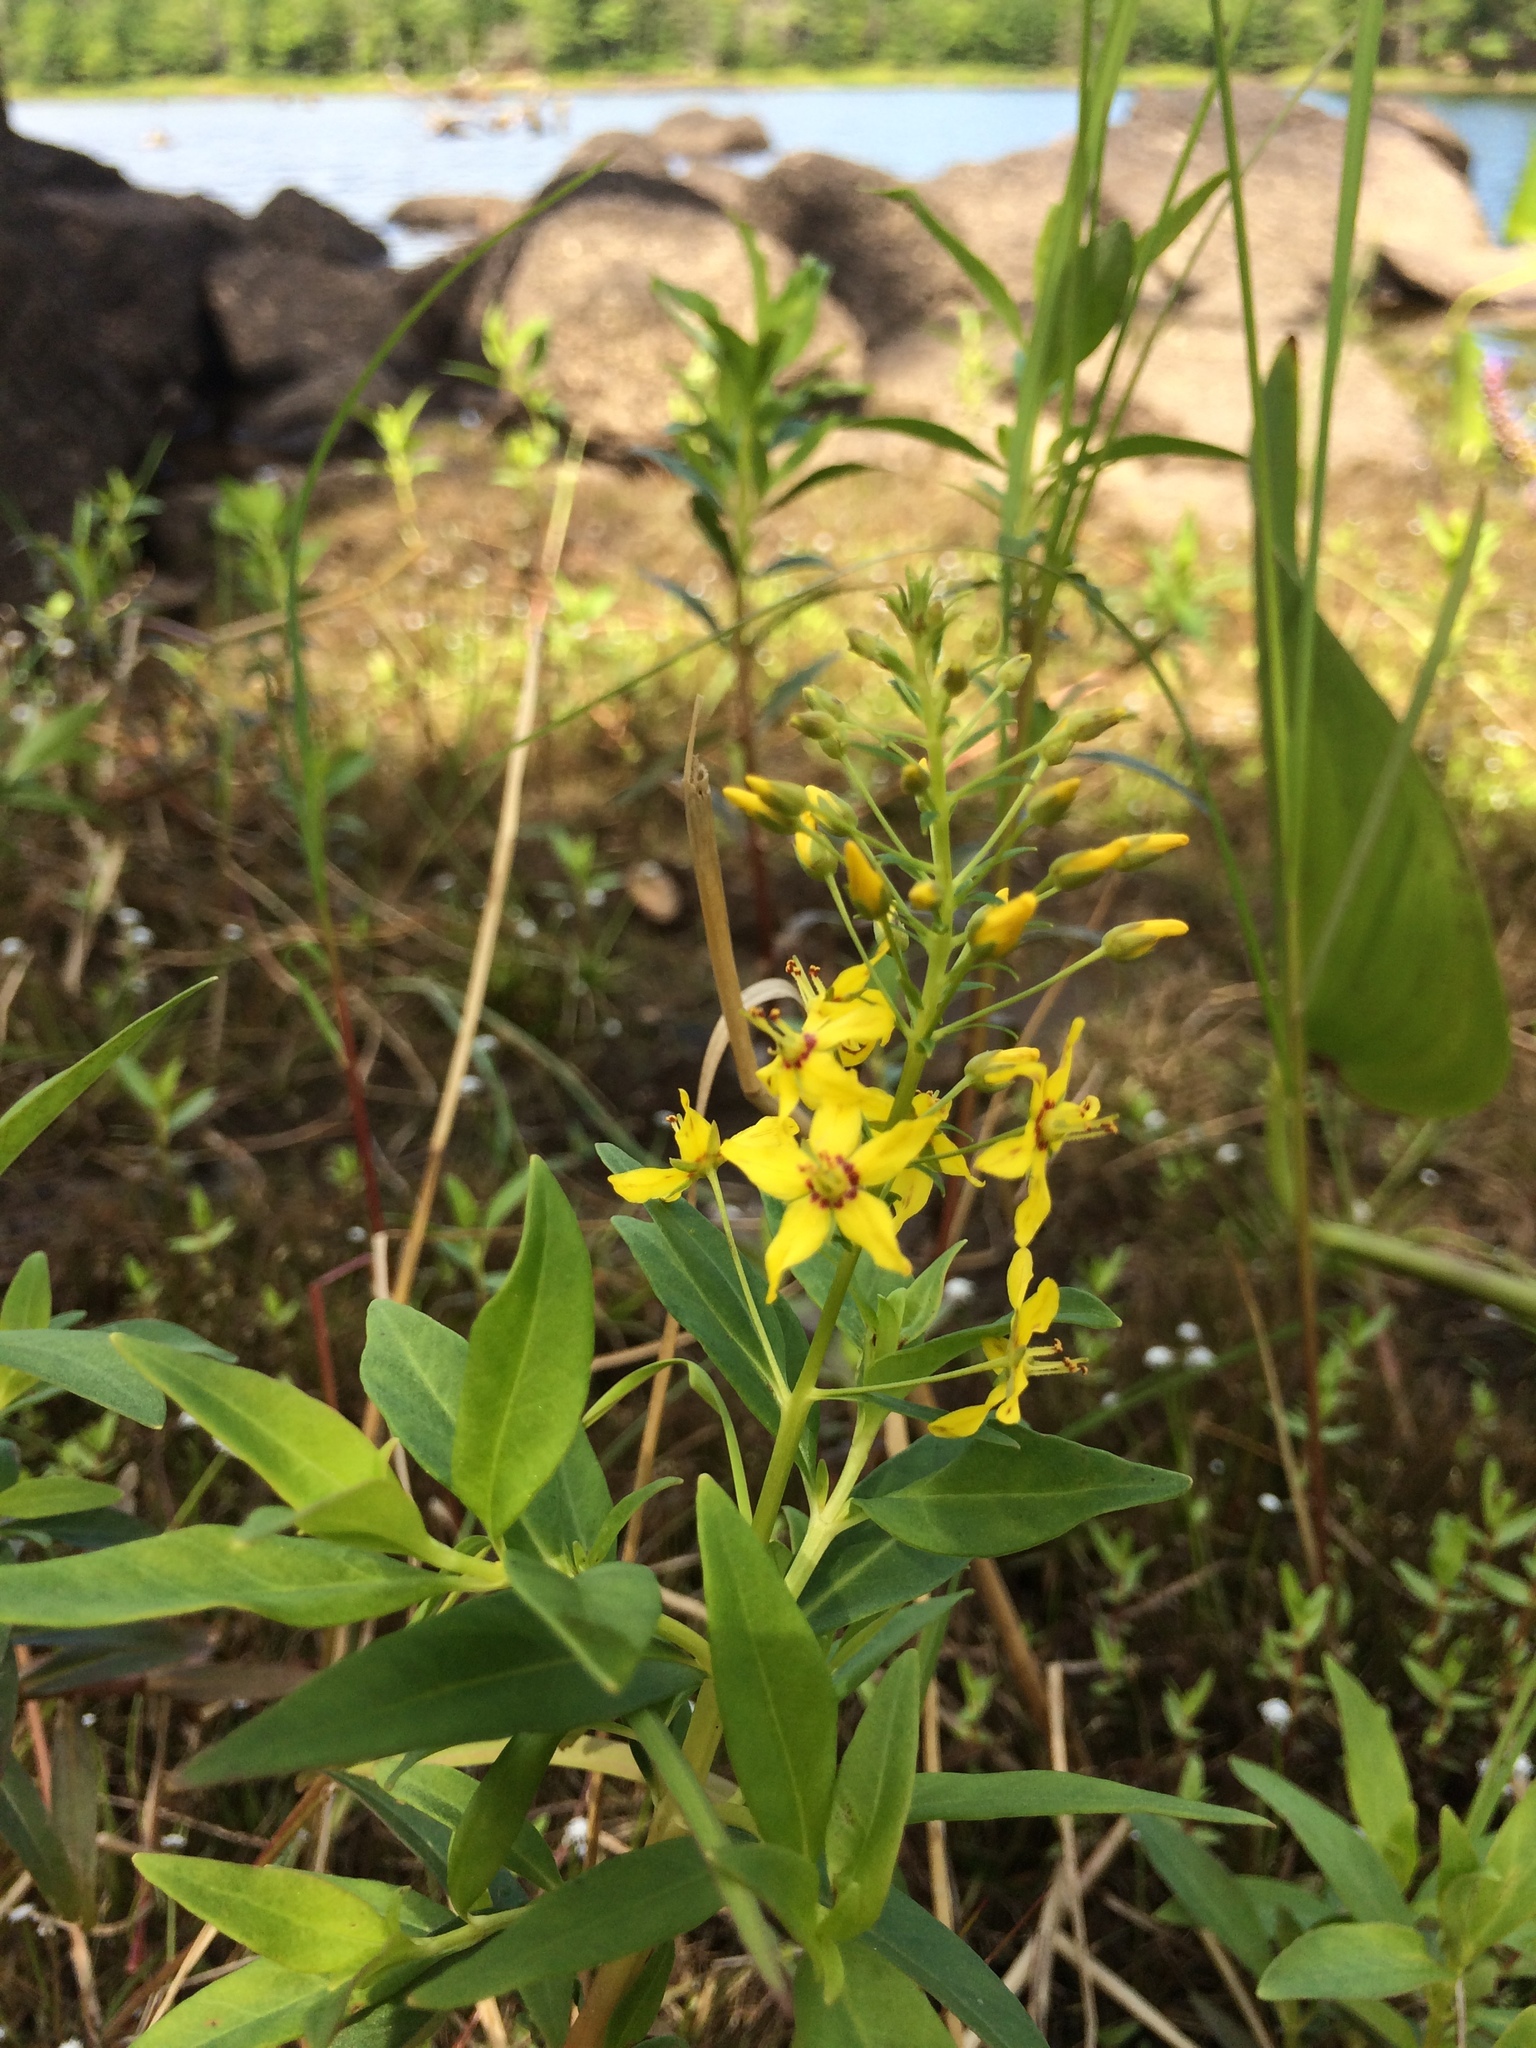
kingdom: Plantae
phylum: Tracheophyta
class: Magnoliopsida
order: Ericales
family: Primulaceae
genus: Lysimachia
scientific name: Lysimachia terrestris
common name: Lake loosestrife
